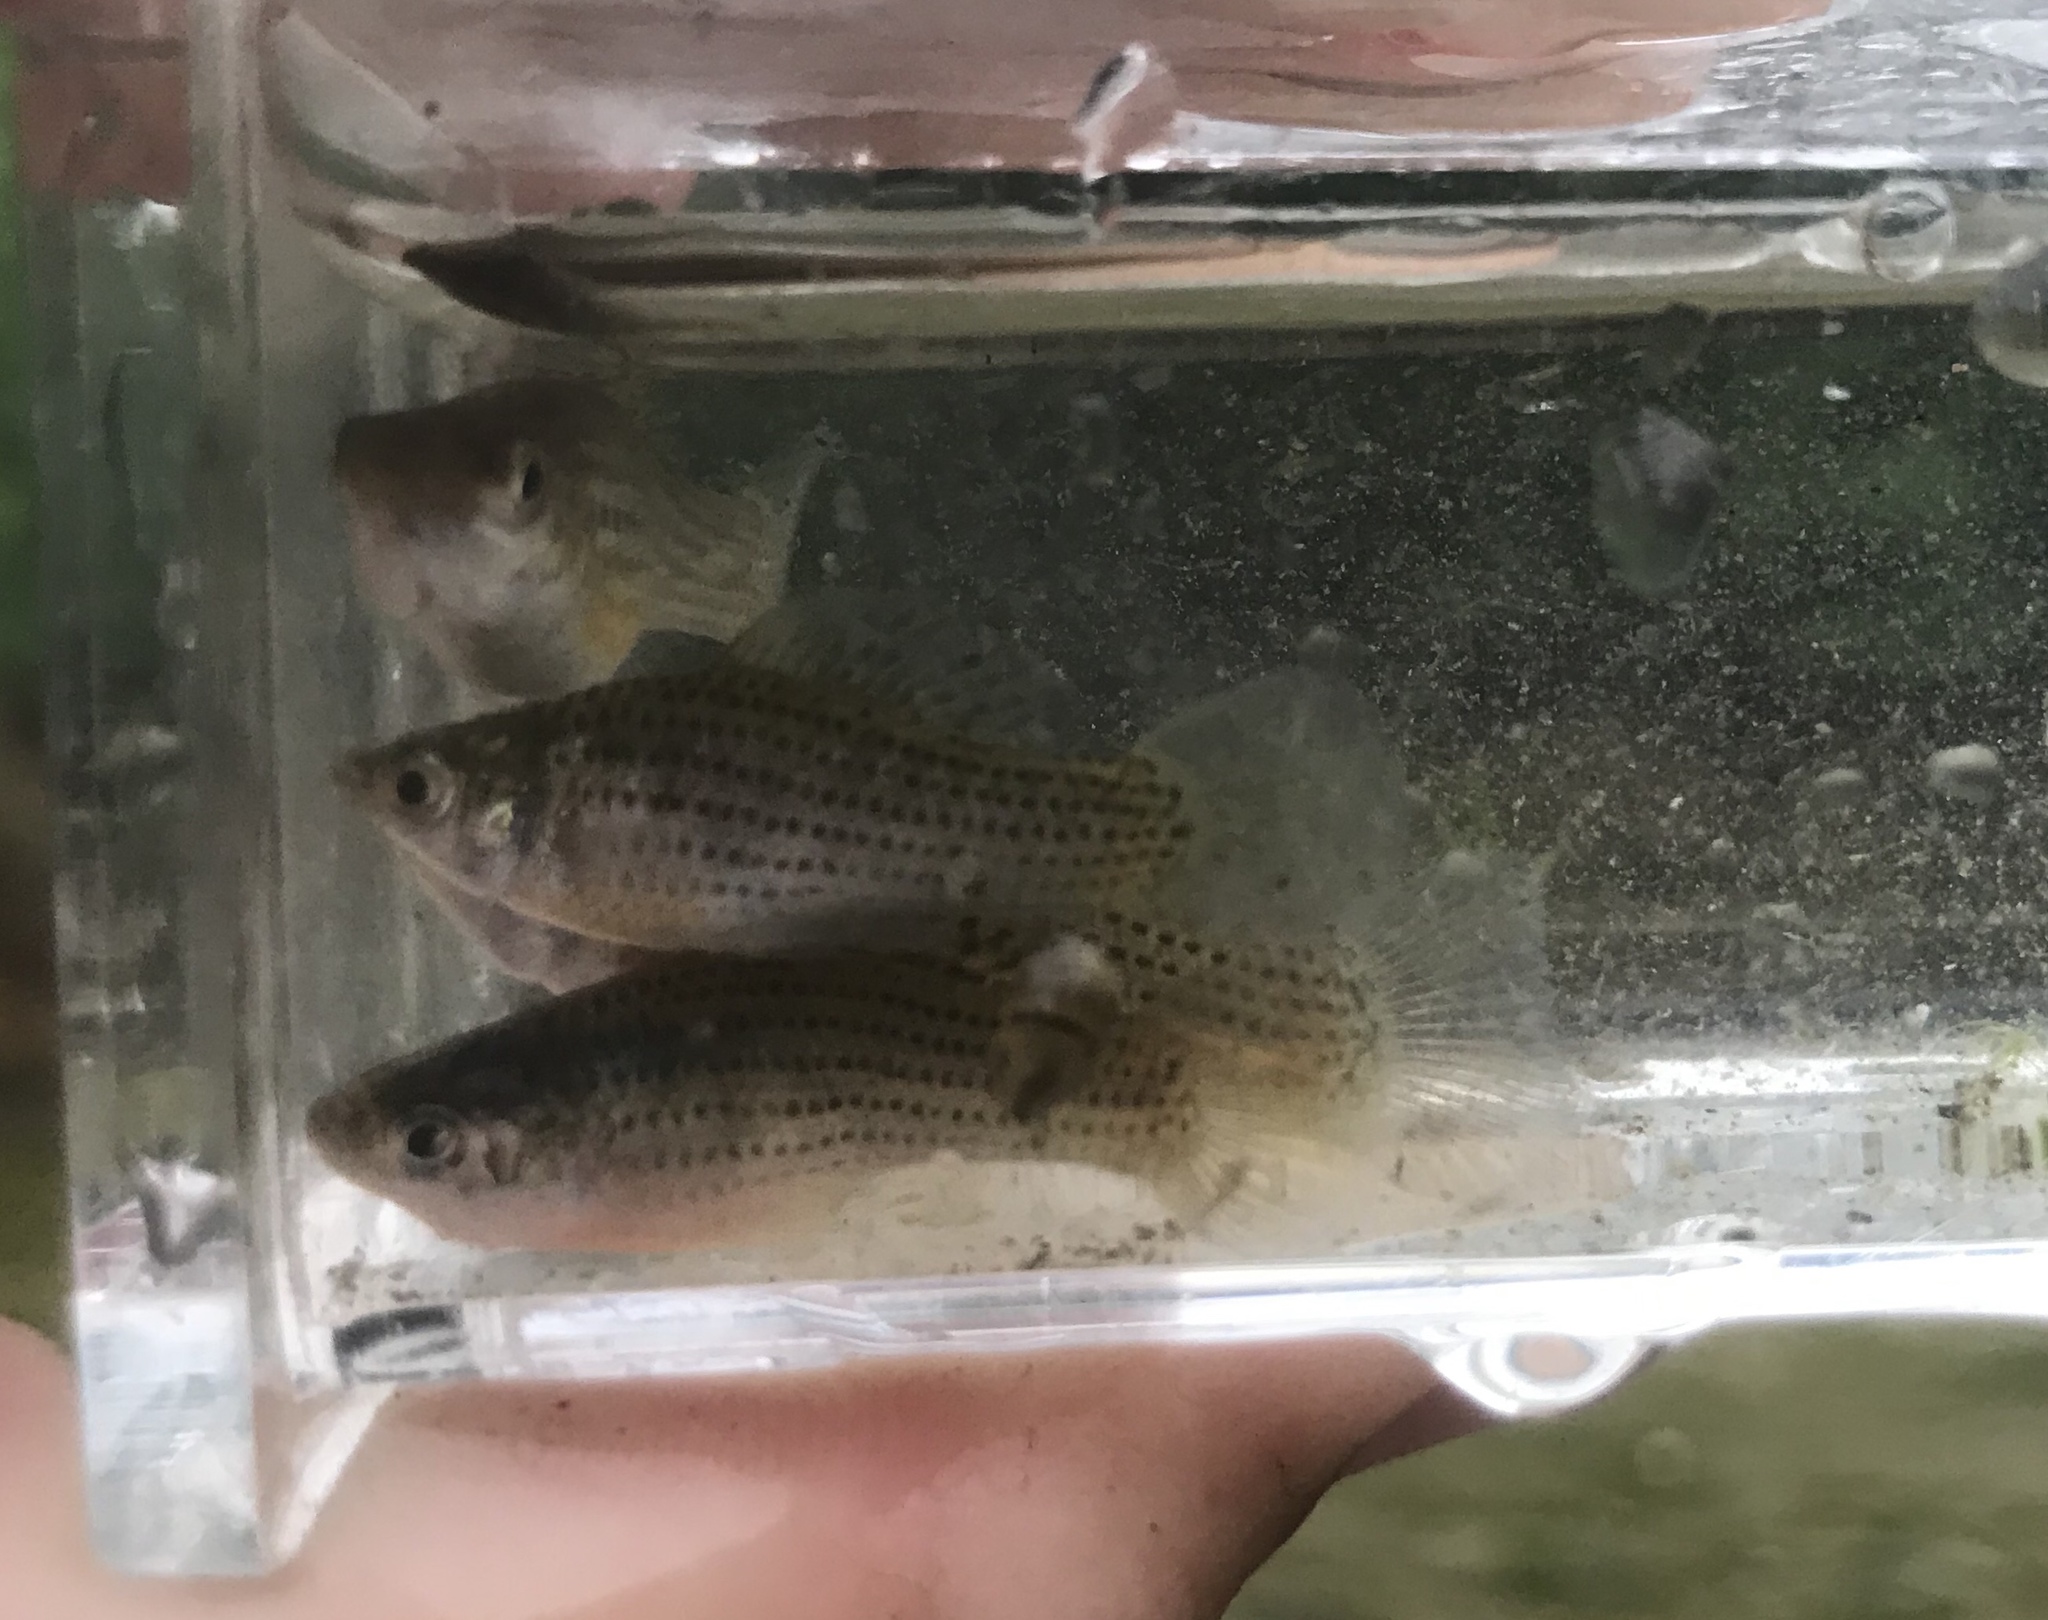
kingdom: Animalia
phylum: Chordata
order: Cyprinodontiformes
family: Poeciliidae
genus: Poecilia
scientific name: Poecilia latipinna
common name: Sailfin molly
